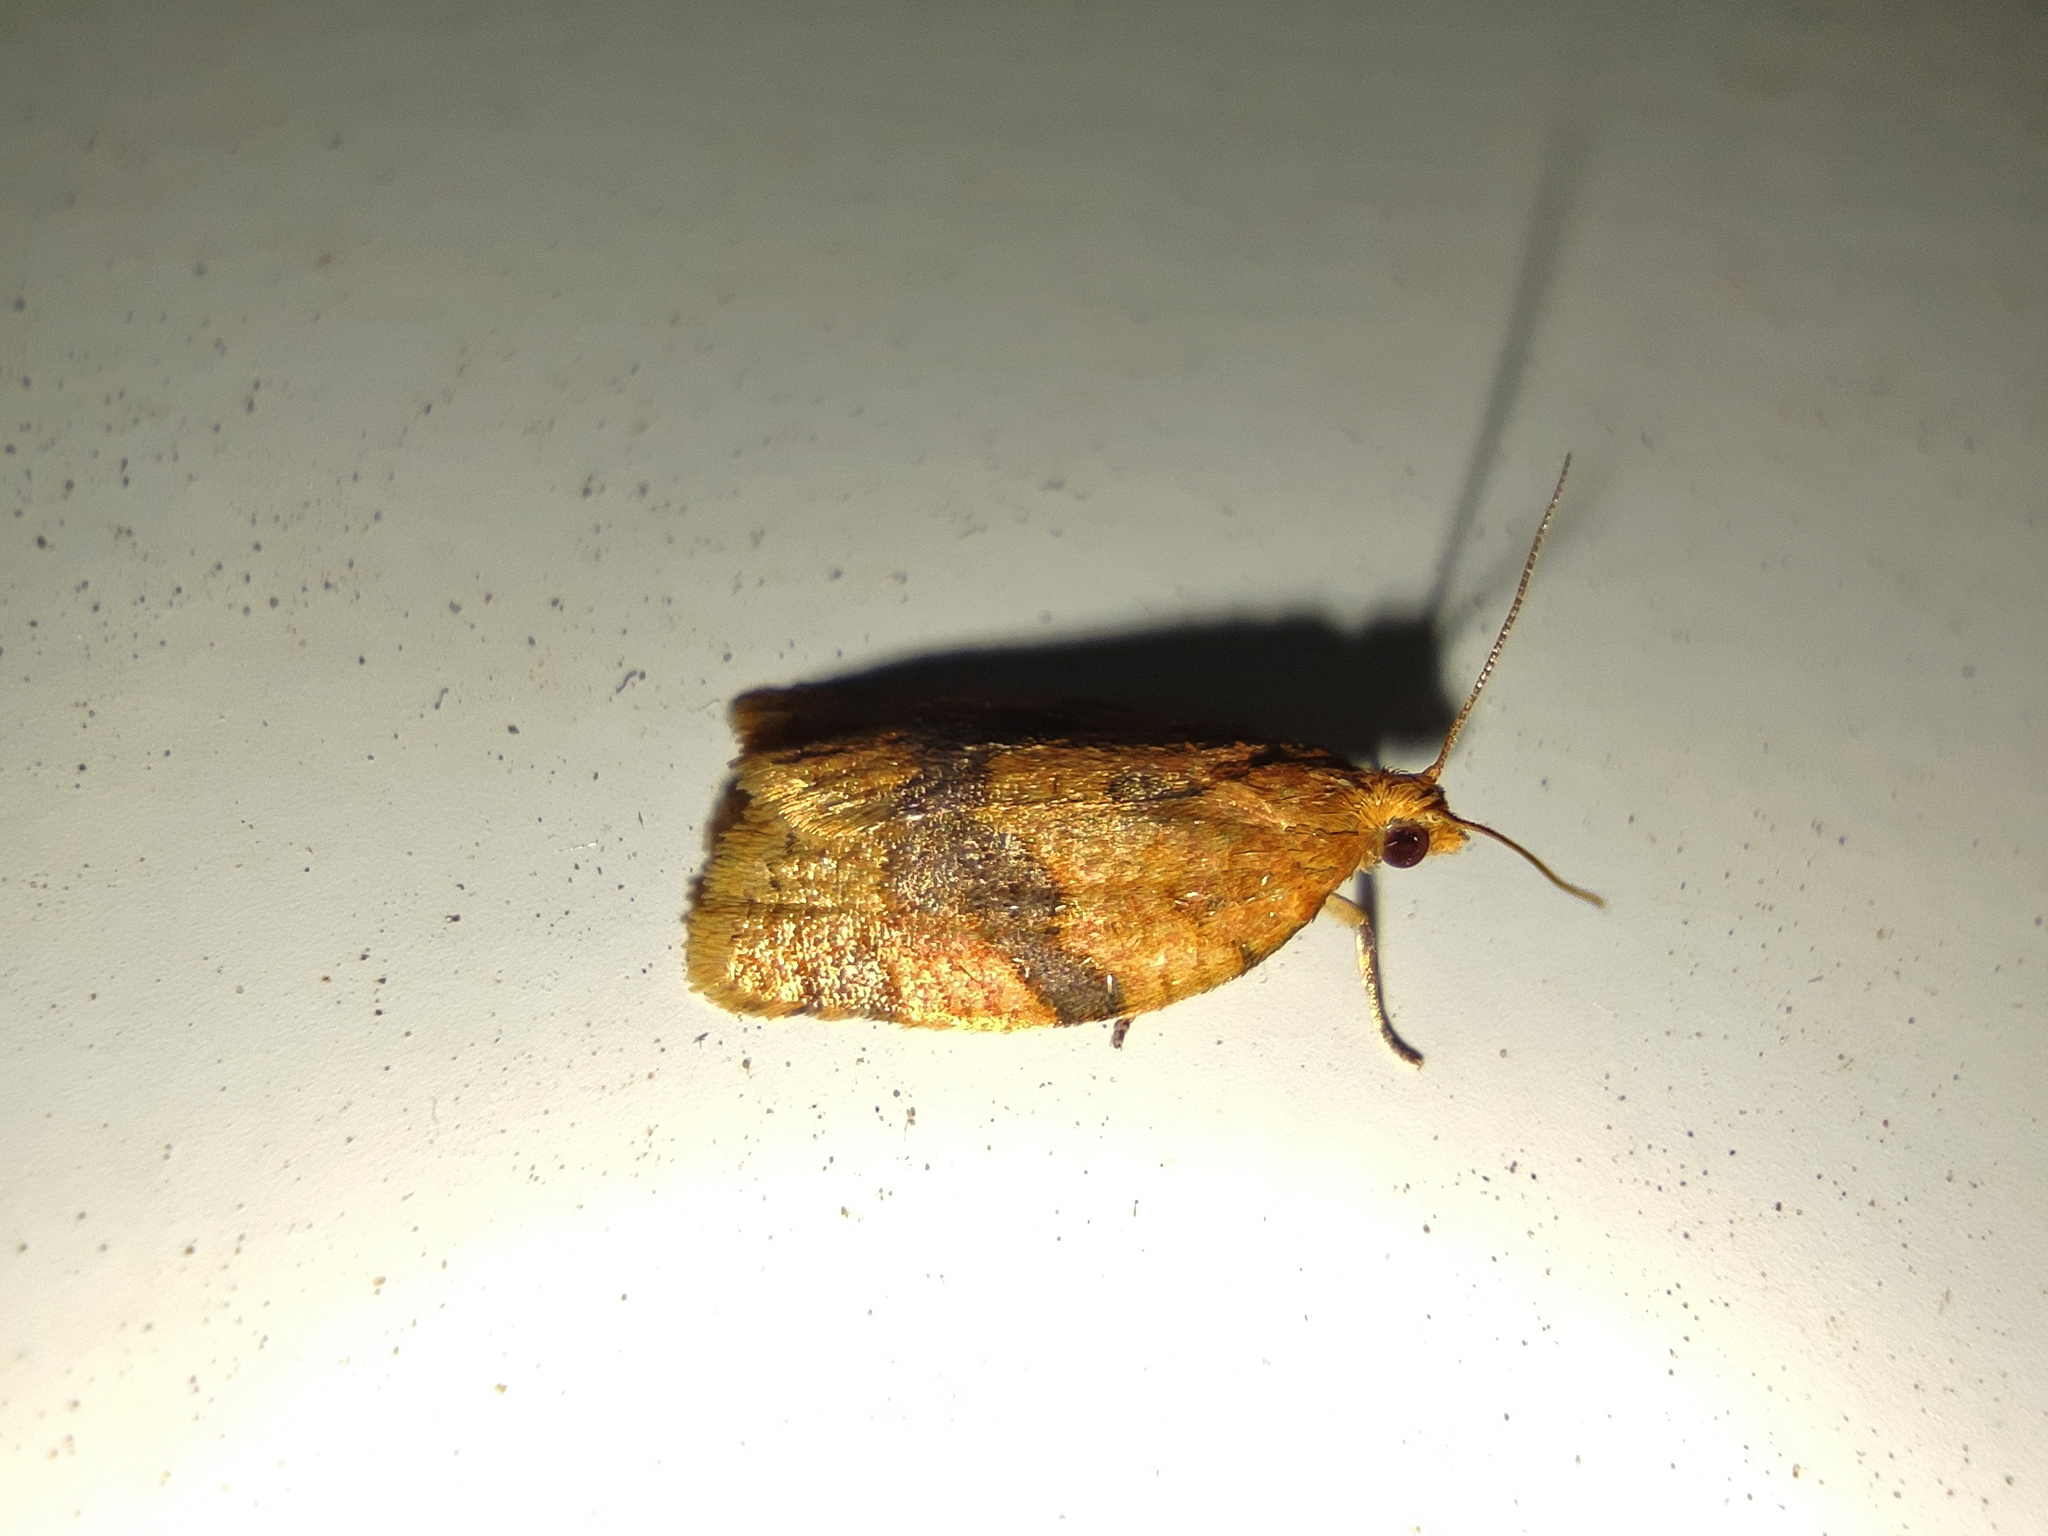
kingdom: Animalia
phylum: Arthropoda
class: Insecta
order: Lepidoptera
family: Tortricidae
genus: Clepsis
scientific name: Clepsis neglectana
